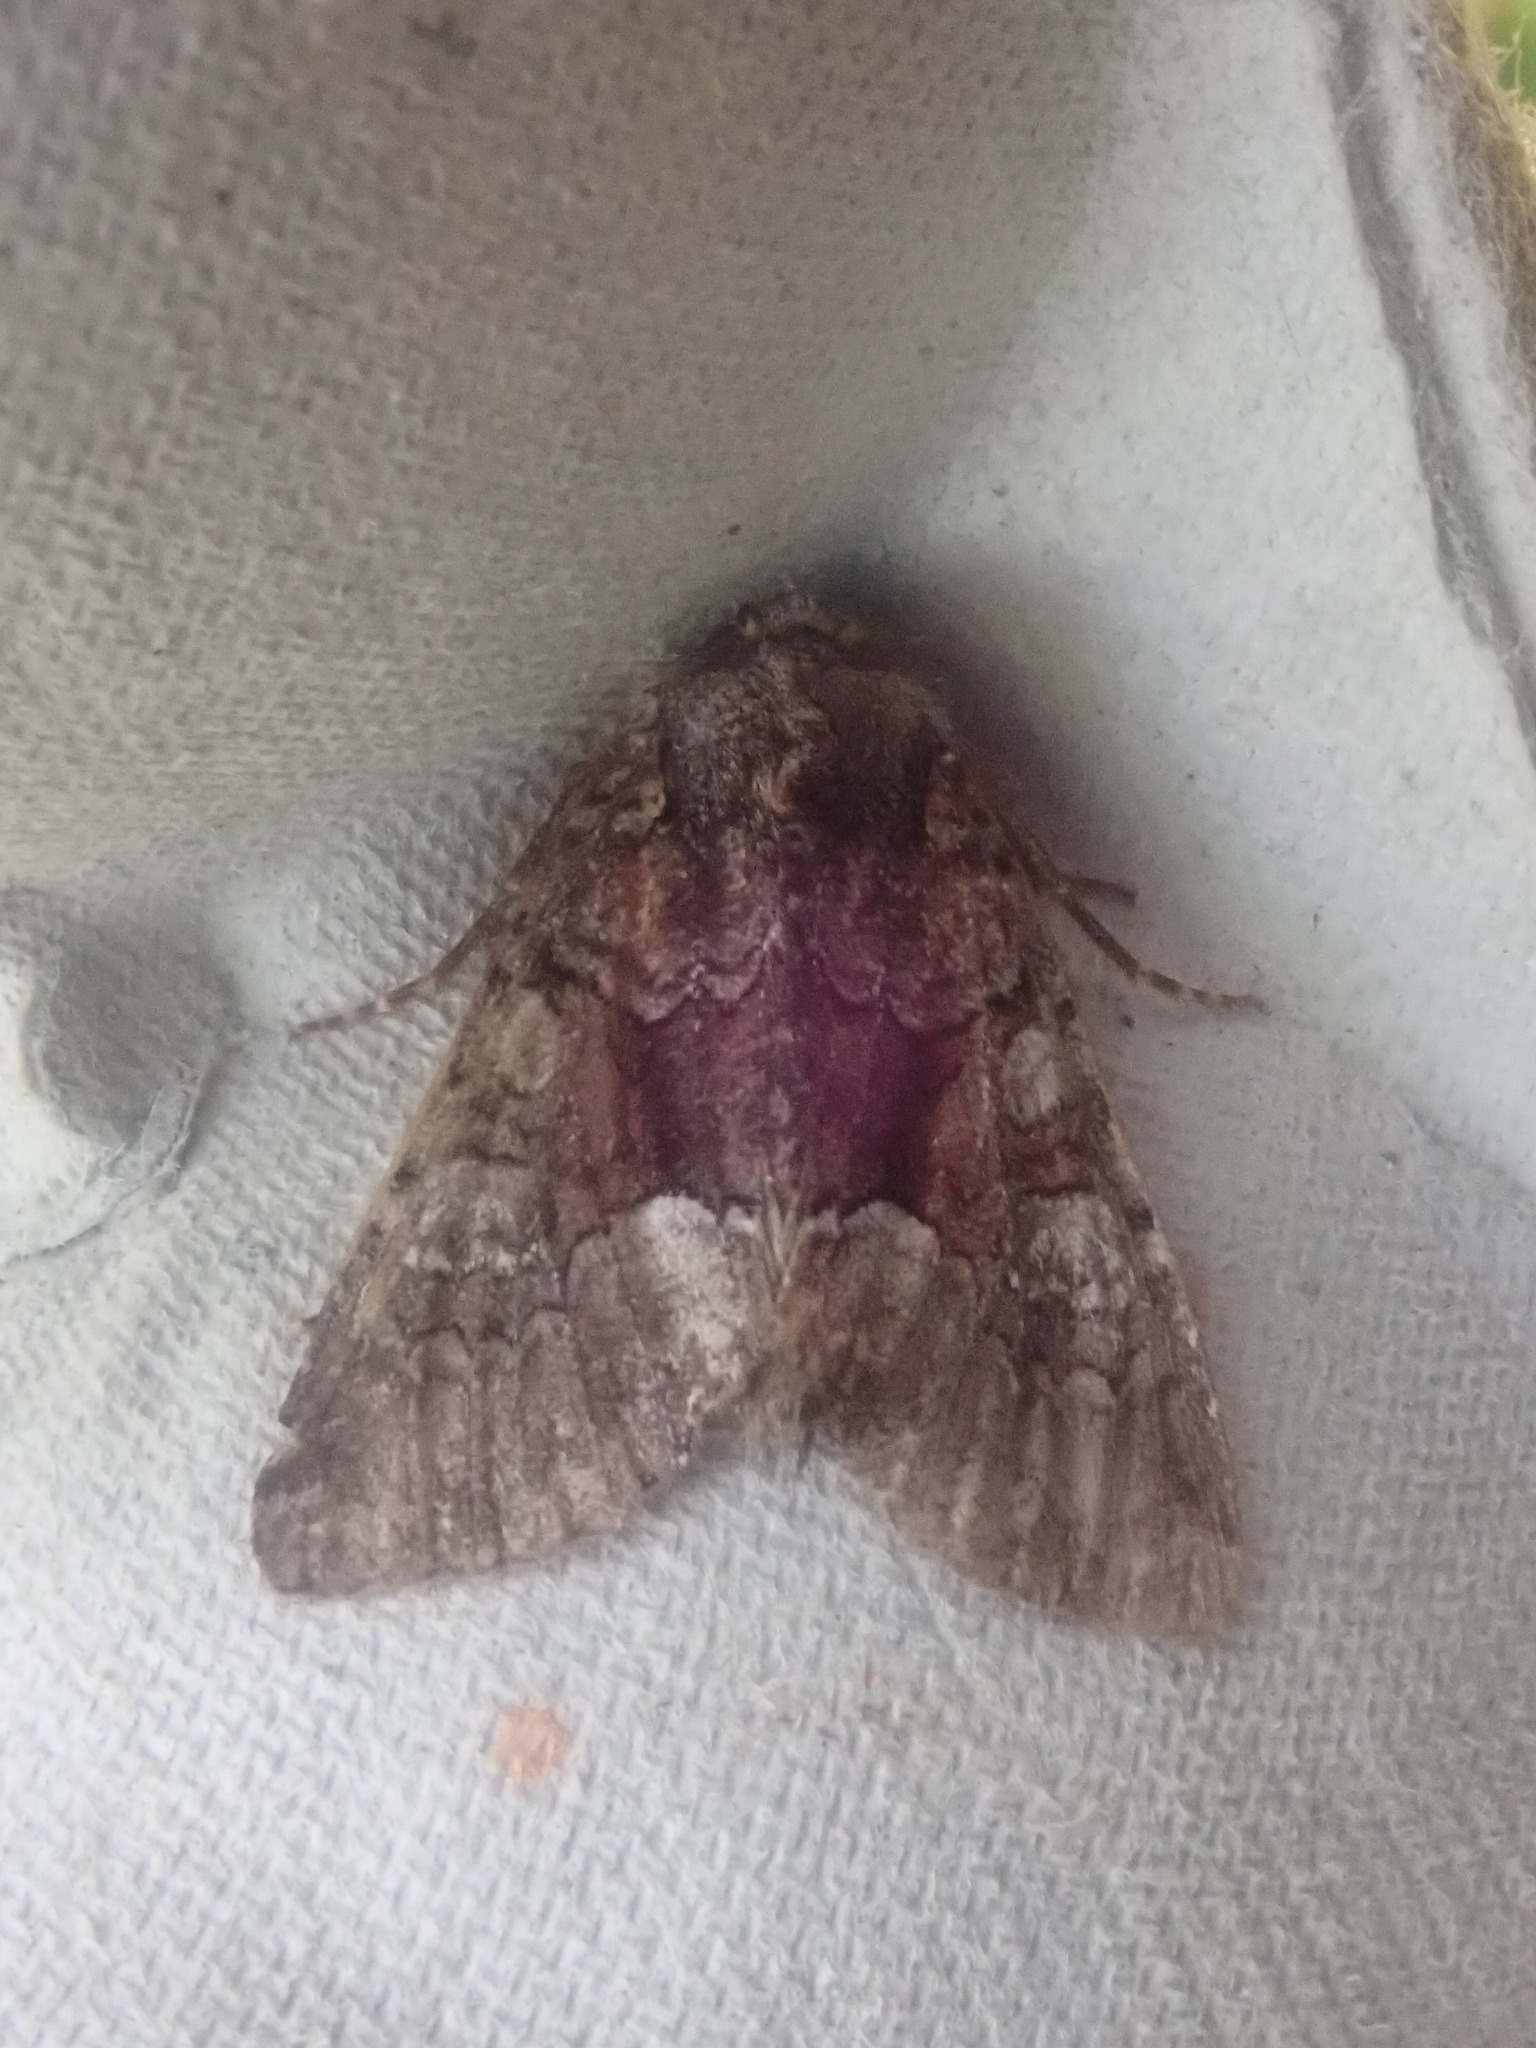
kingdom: Animalia
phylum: Arthropoda
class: Insecta
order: Lepidoptera
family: Noctuidae
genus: Fishia
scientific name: Fishia illocata
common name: Wandering brocade moth
